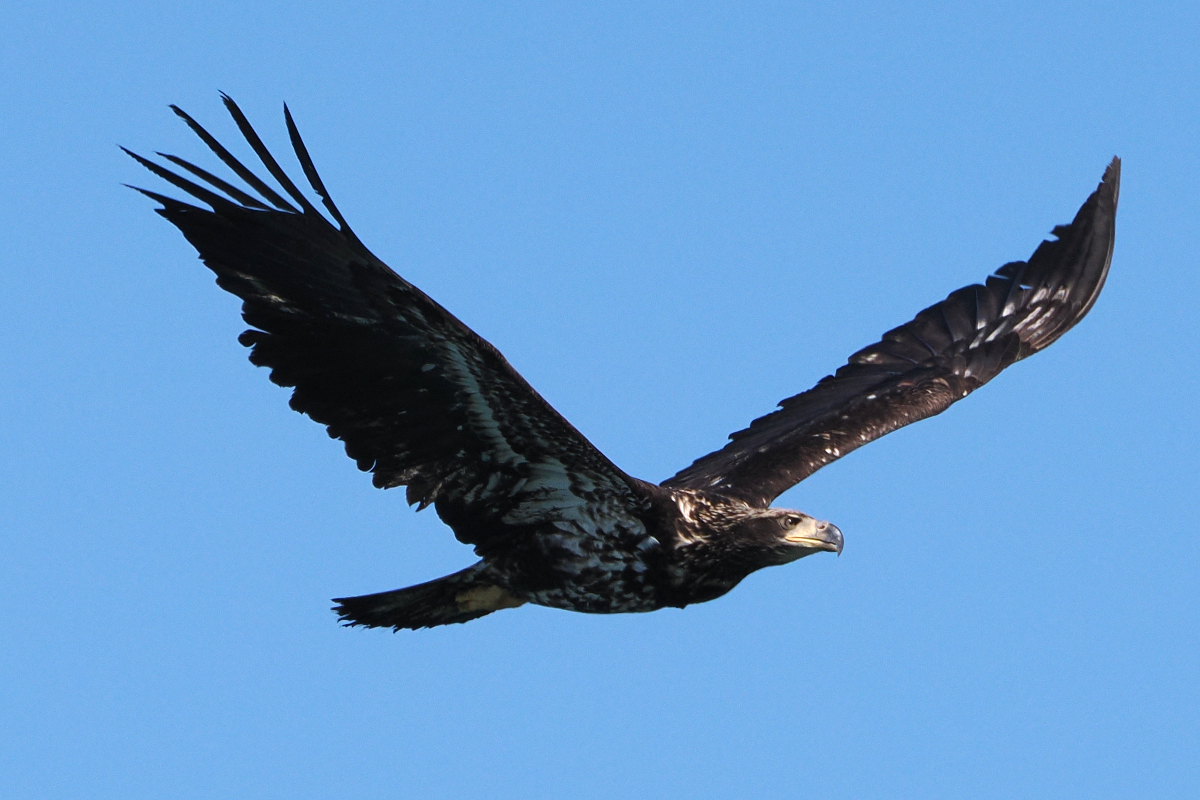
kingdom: Animalia
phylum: Chordata
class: Aves
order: Accipitriformes
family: Accipitridae
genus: Haliaeetus
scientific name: Haliaeetus leucocephalus
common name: Bald eagle
